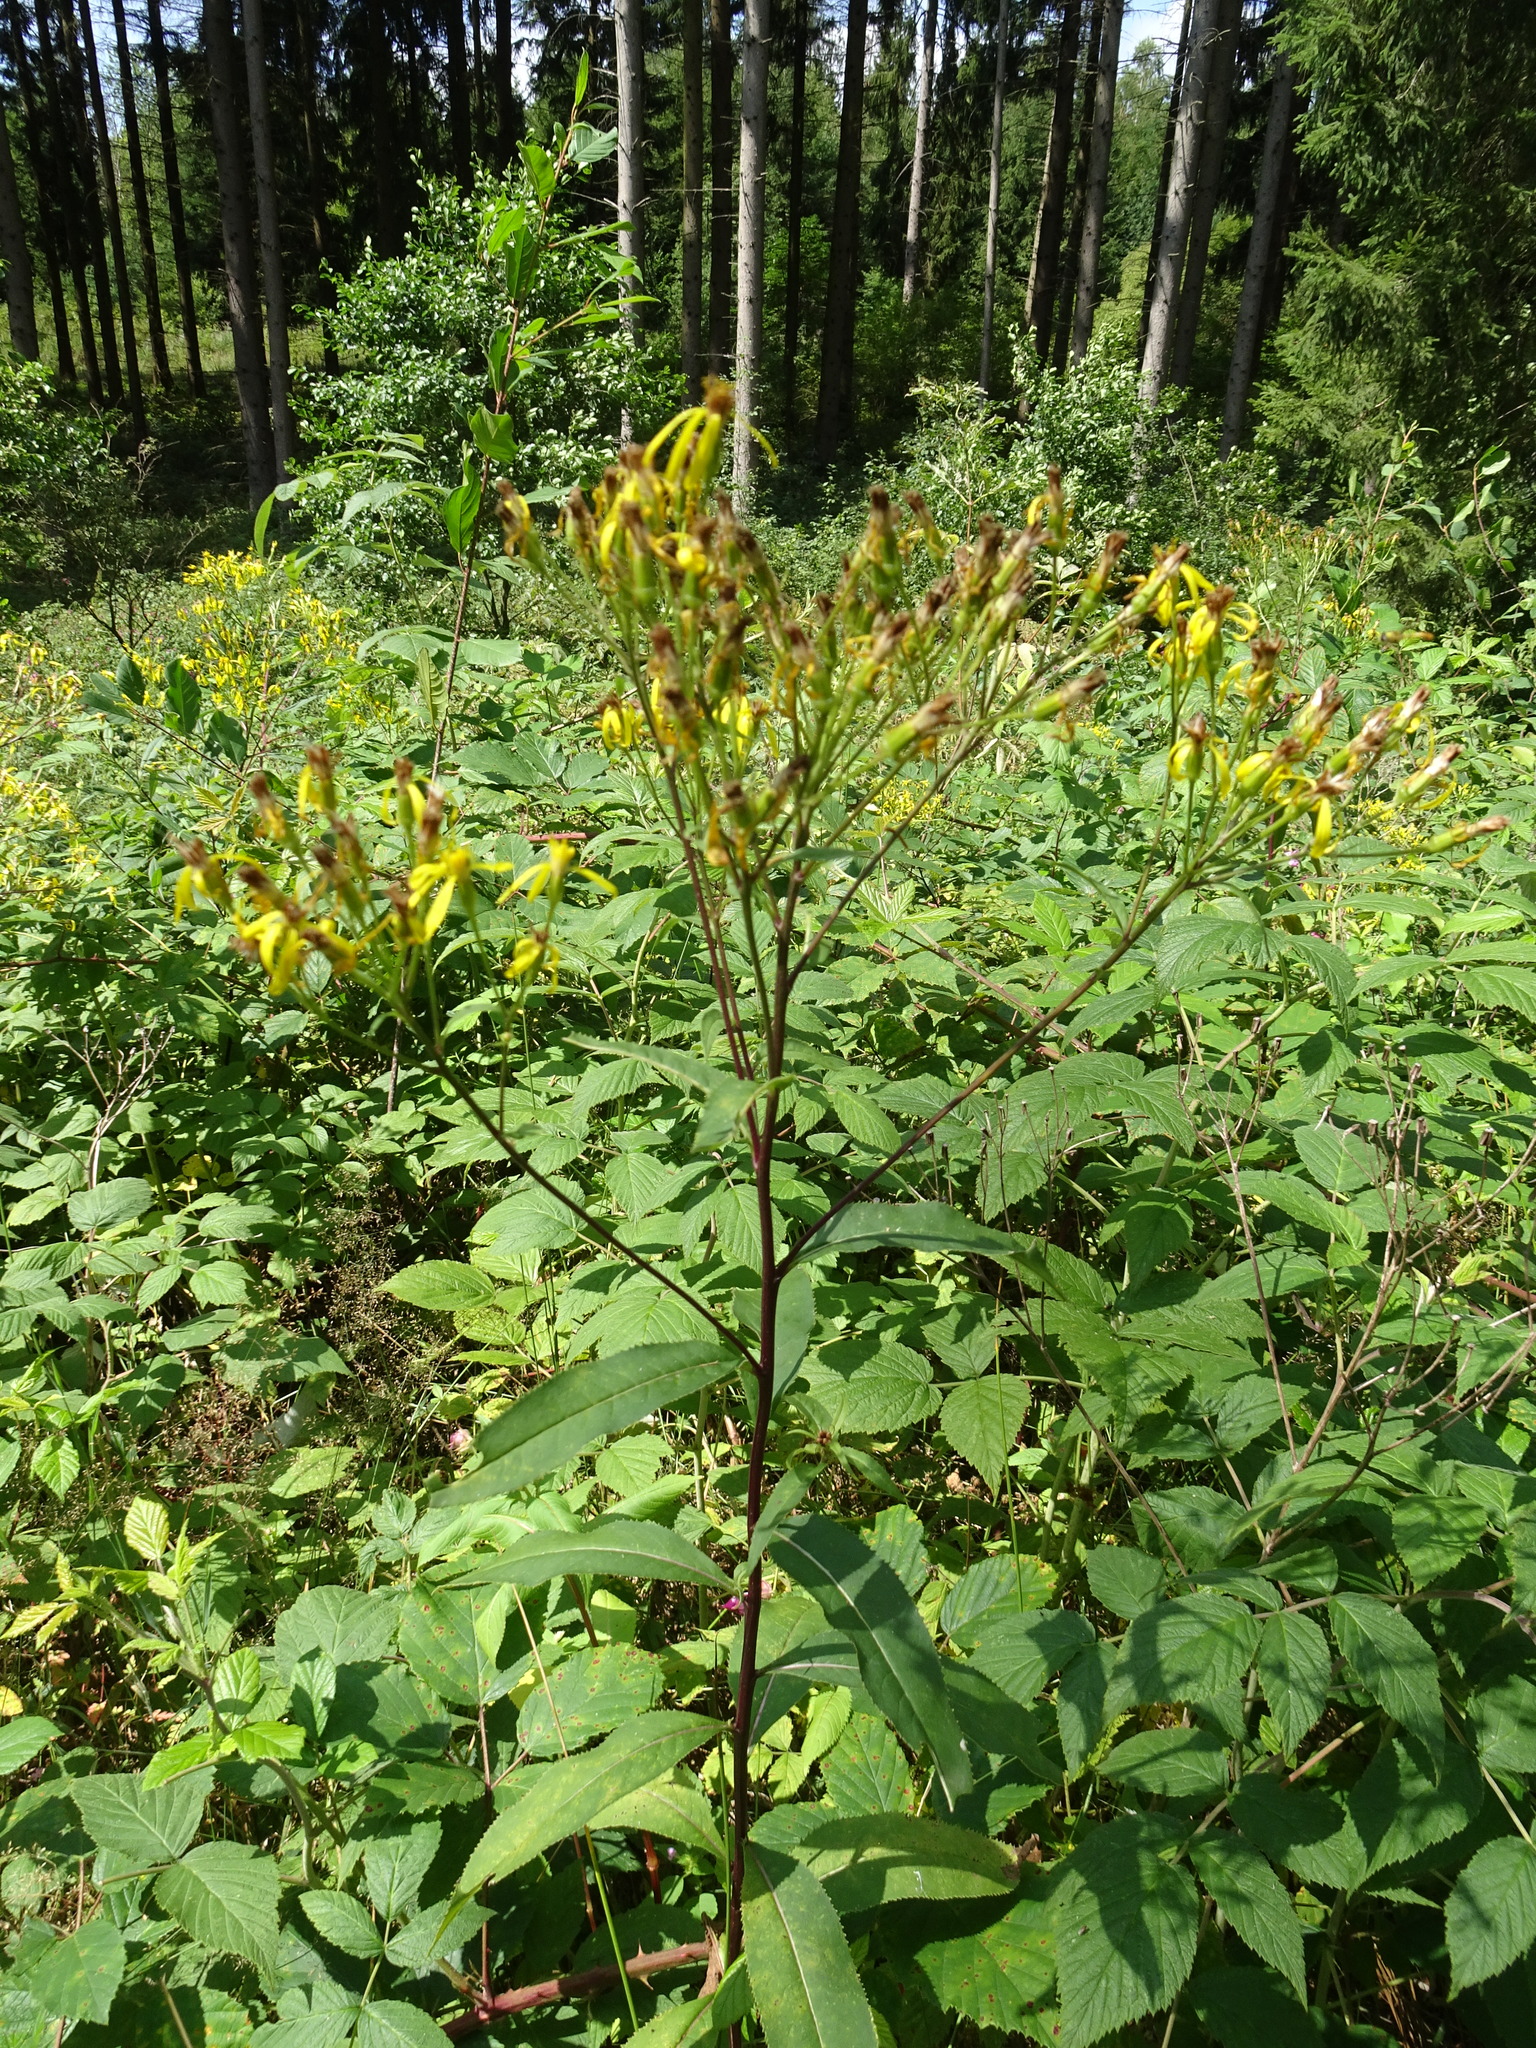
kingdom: Plantae
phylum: Tracheophyta
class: Magnoliopsida
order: Asterales
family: Asteraceae
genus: Senecio
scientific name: Senecio ovatus
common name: Wood ragwort
